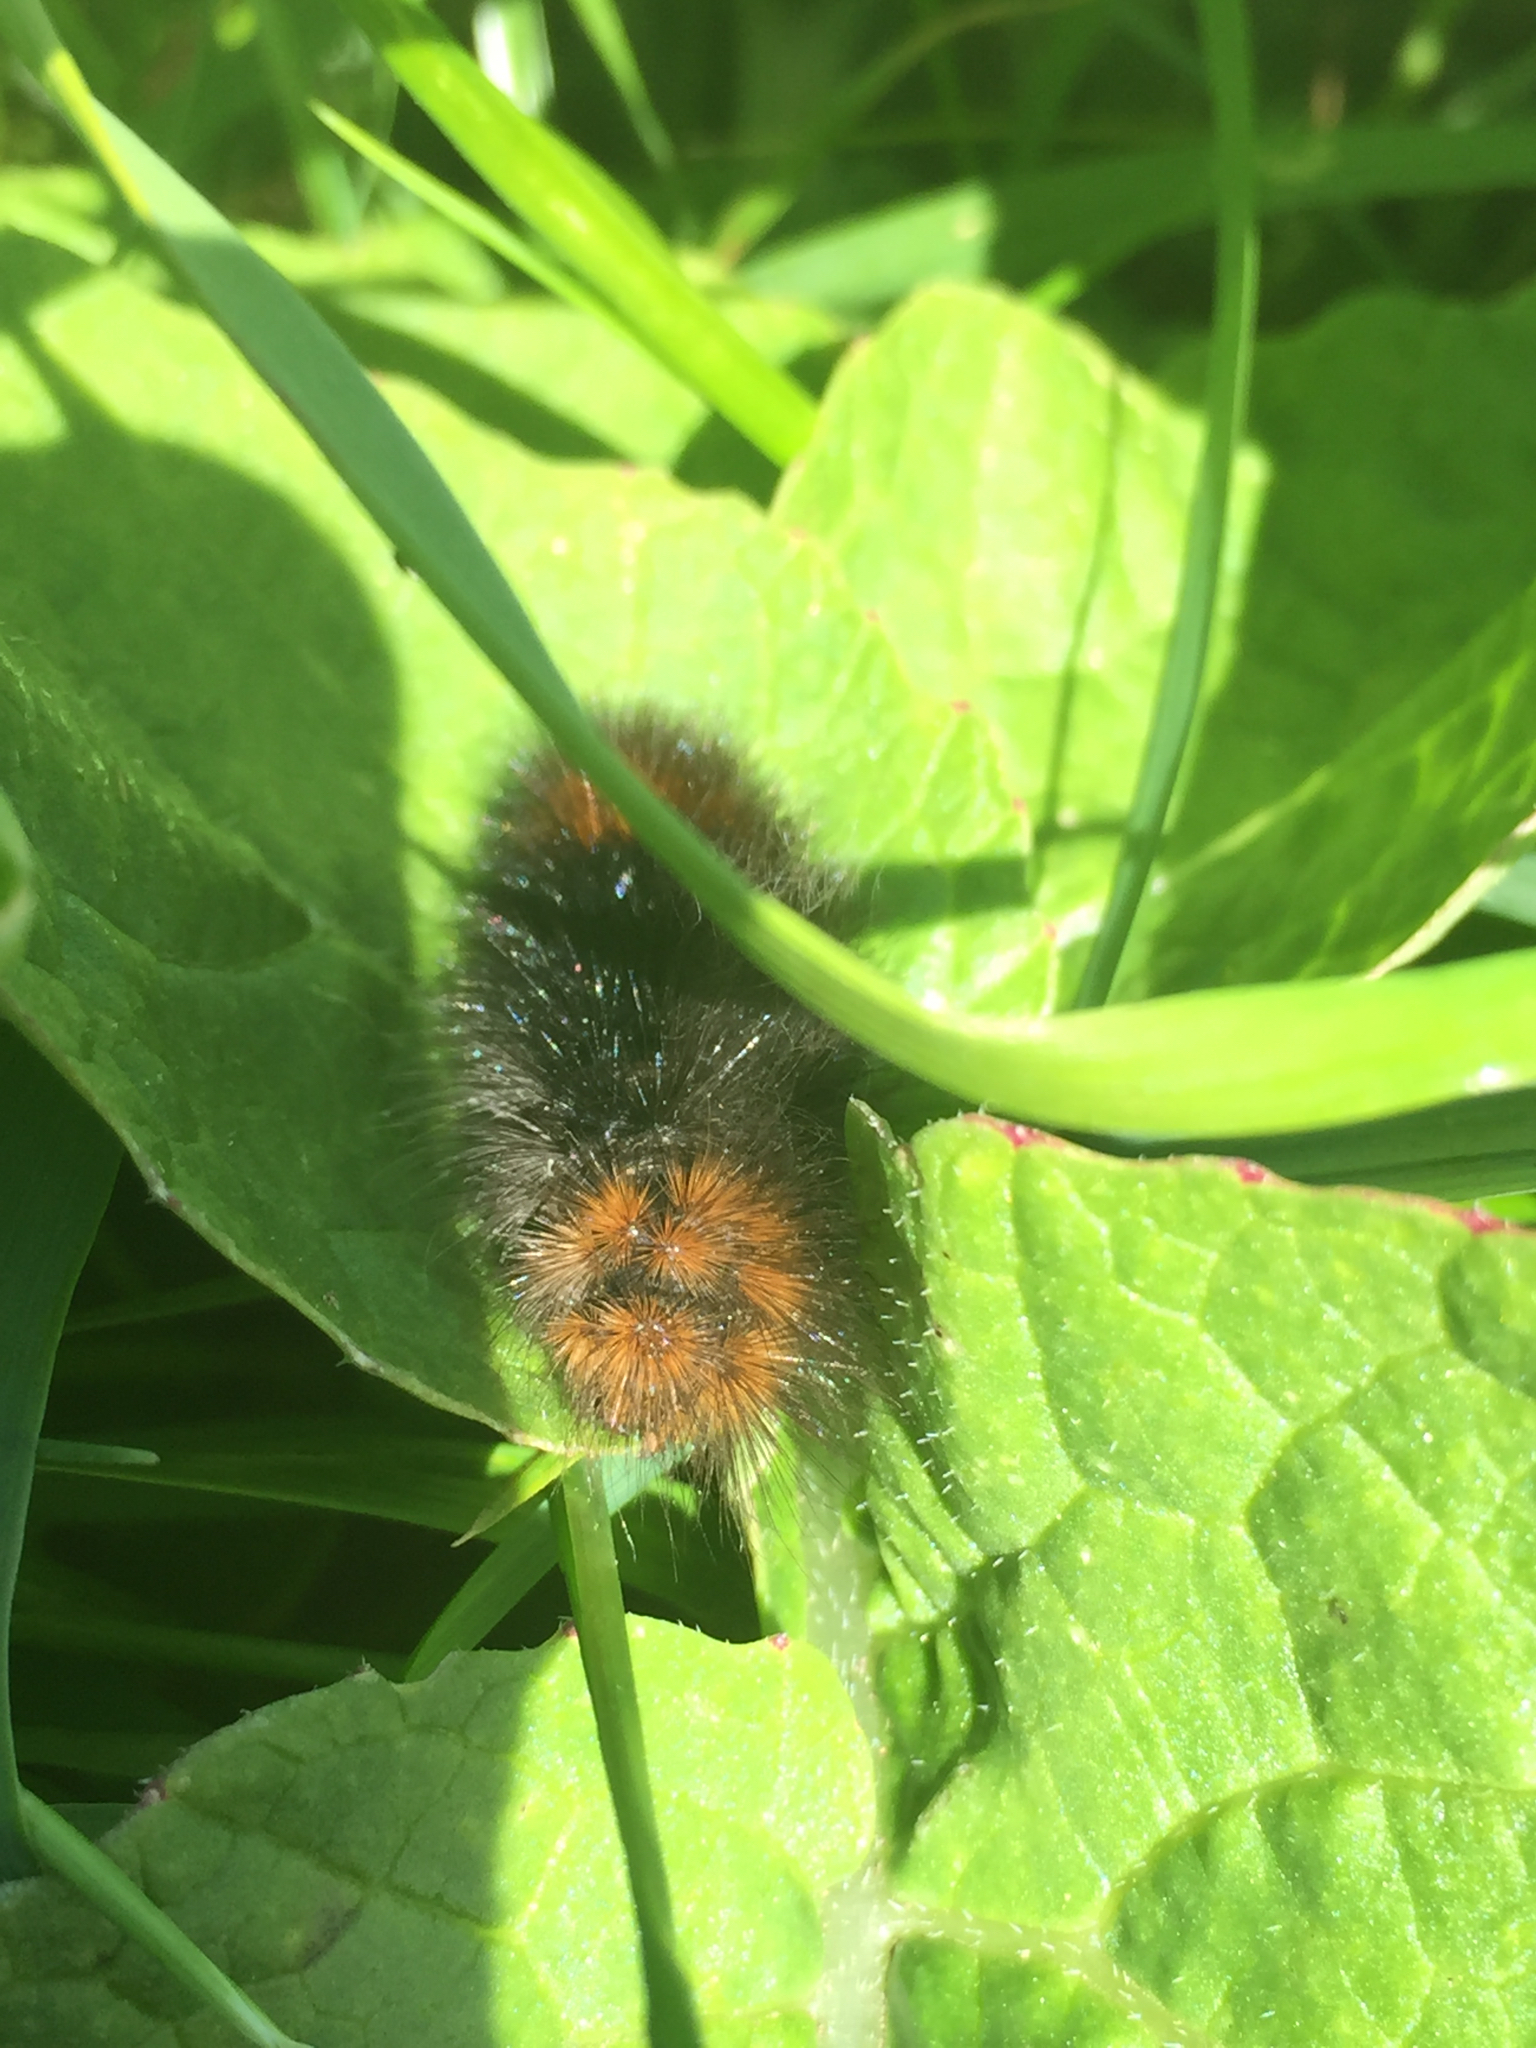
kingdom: Animalia
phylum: Arthropoda
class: Insecta
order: Lepidoptera
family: Erebidae
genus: Arctia
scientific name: Arctia tigrina
